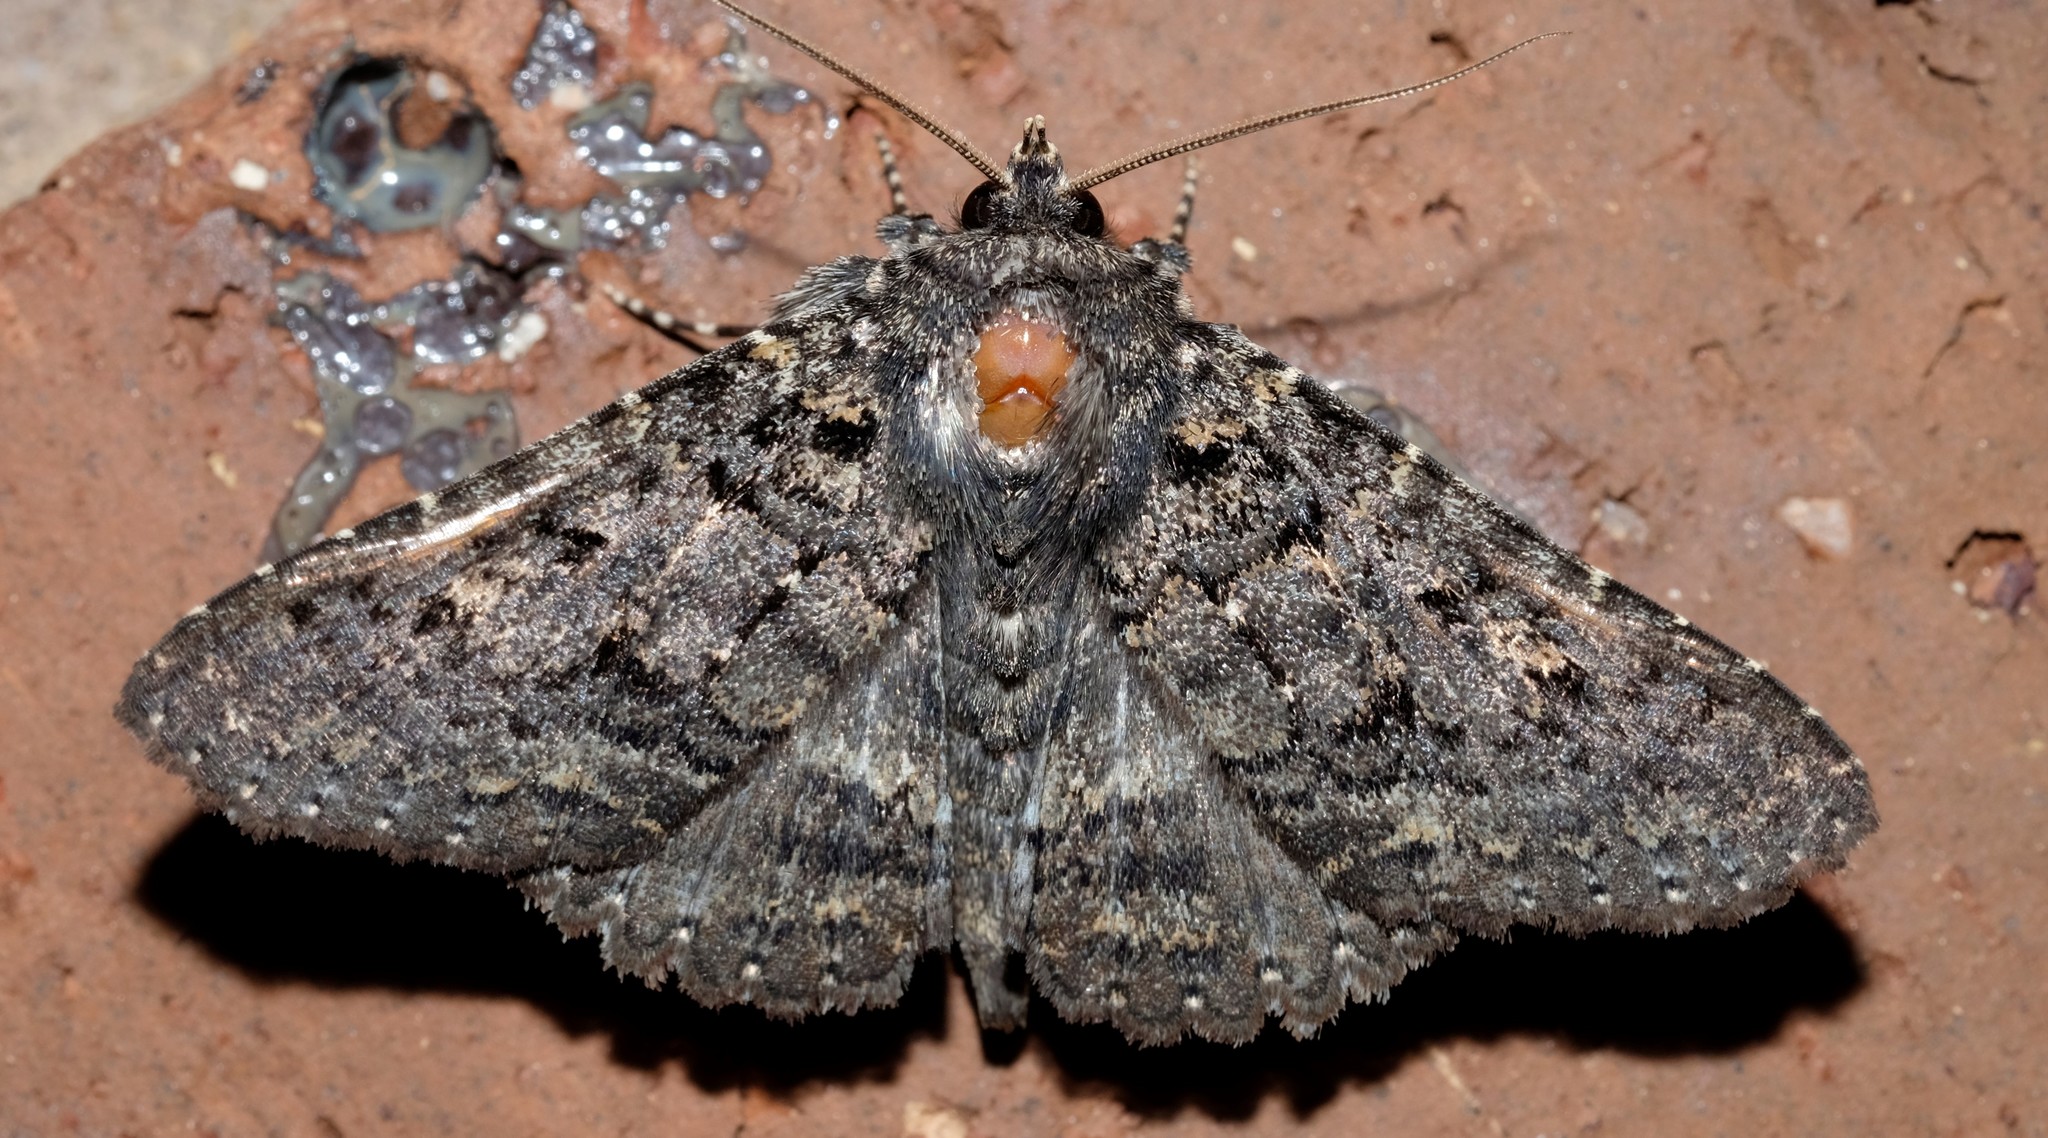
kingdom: Animalia
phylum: Arthropoda
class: Insecta
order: Lepidoptera
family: Erebidae
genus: Praxis
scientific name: Praxis edwardsii
